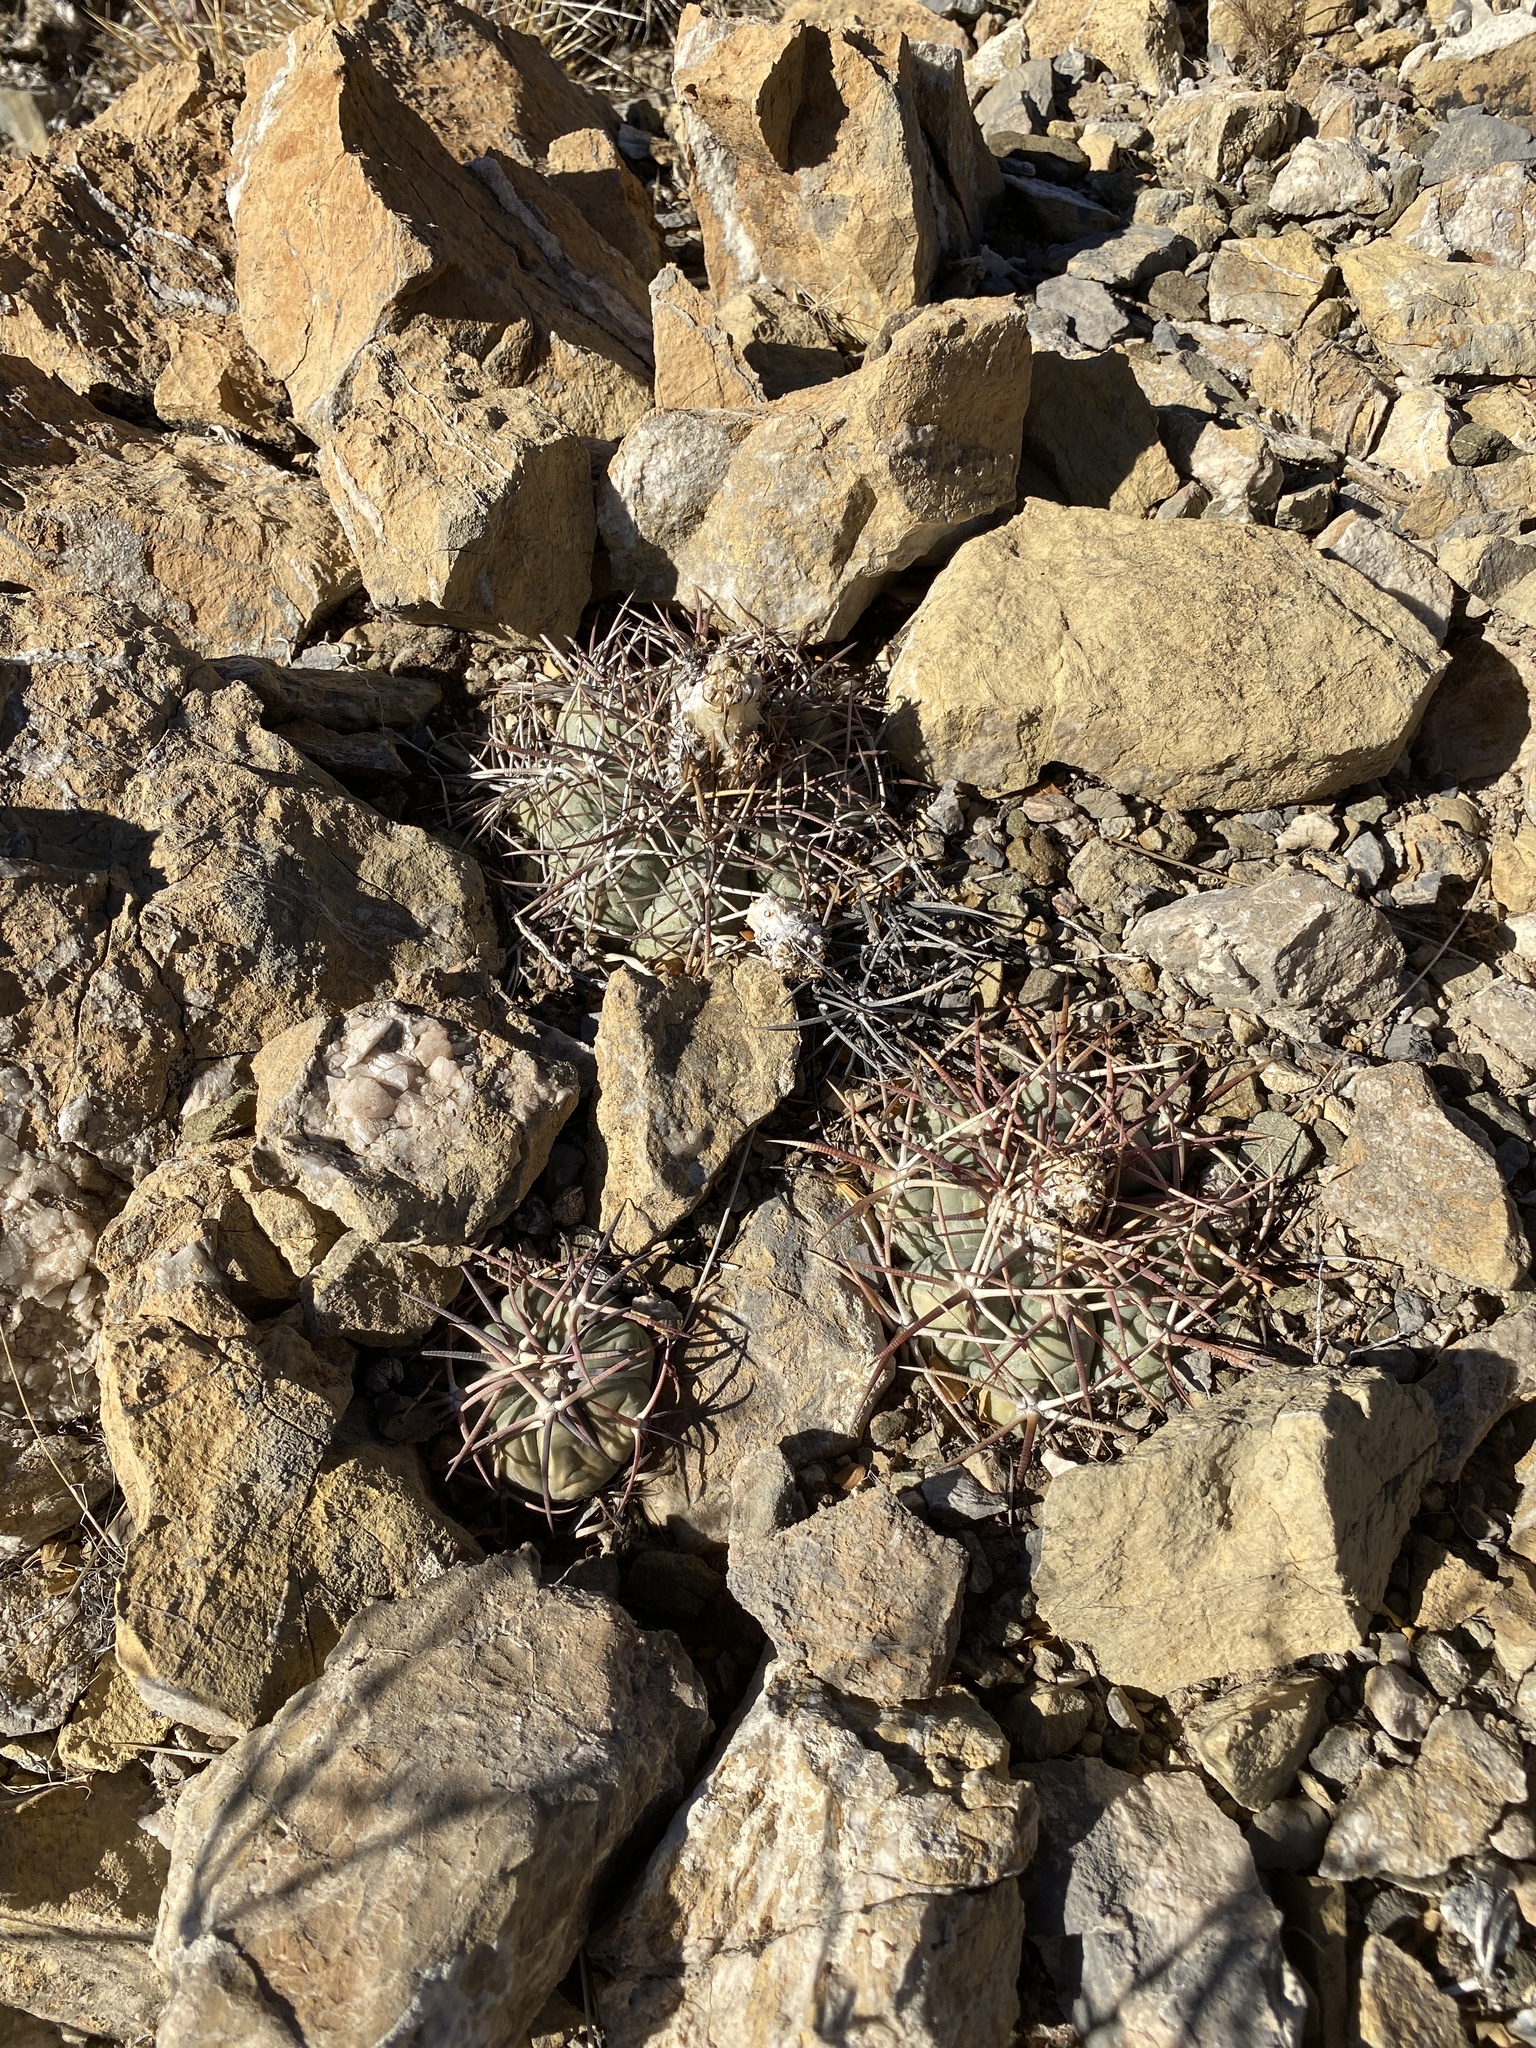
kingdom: Plantae
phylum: Tracheophyta
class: Magnoliopsida
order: Caryophyllales
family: Cactaceae
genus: Echinocactus
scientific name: Echinocactus horizonthalonius
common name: Devilshead
